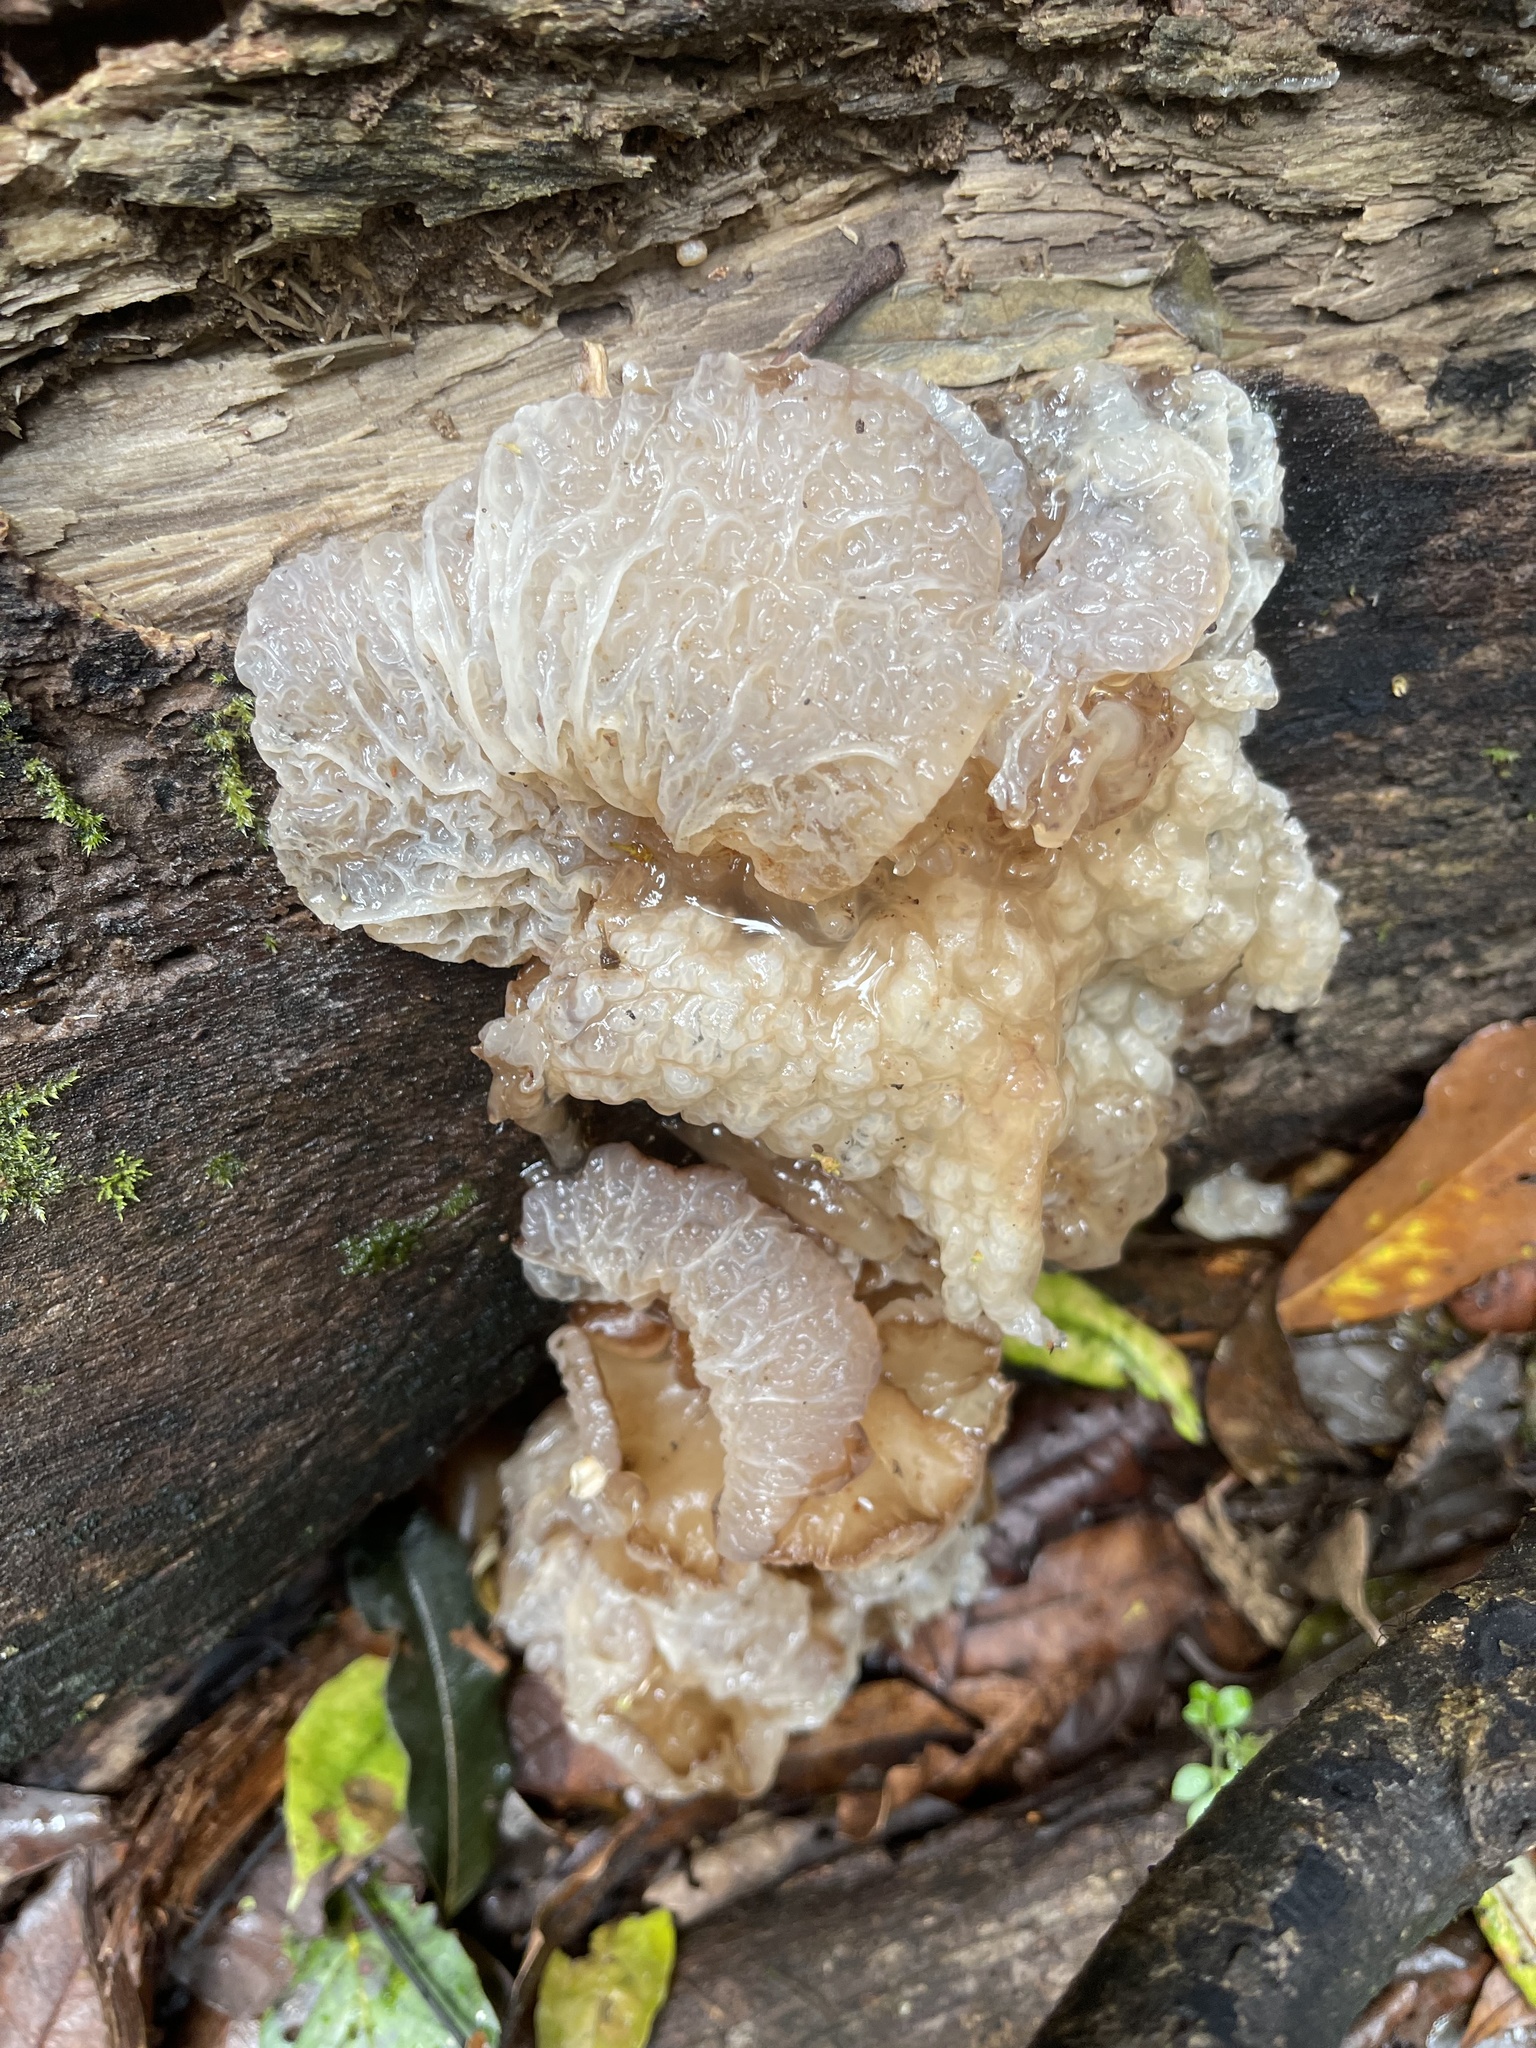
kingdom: Fungi
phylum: Basidiomycota
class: Agaricomycetes
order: Auriculariales
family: Auriculariaceae
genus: Auricularia
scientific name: Auricularia delicata
